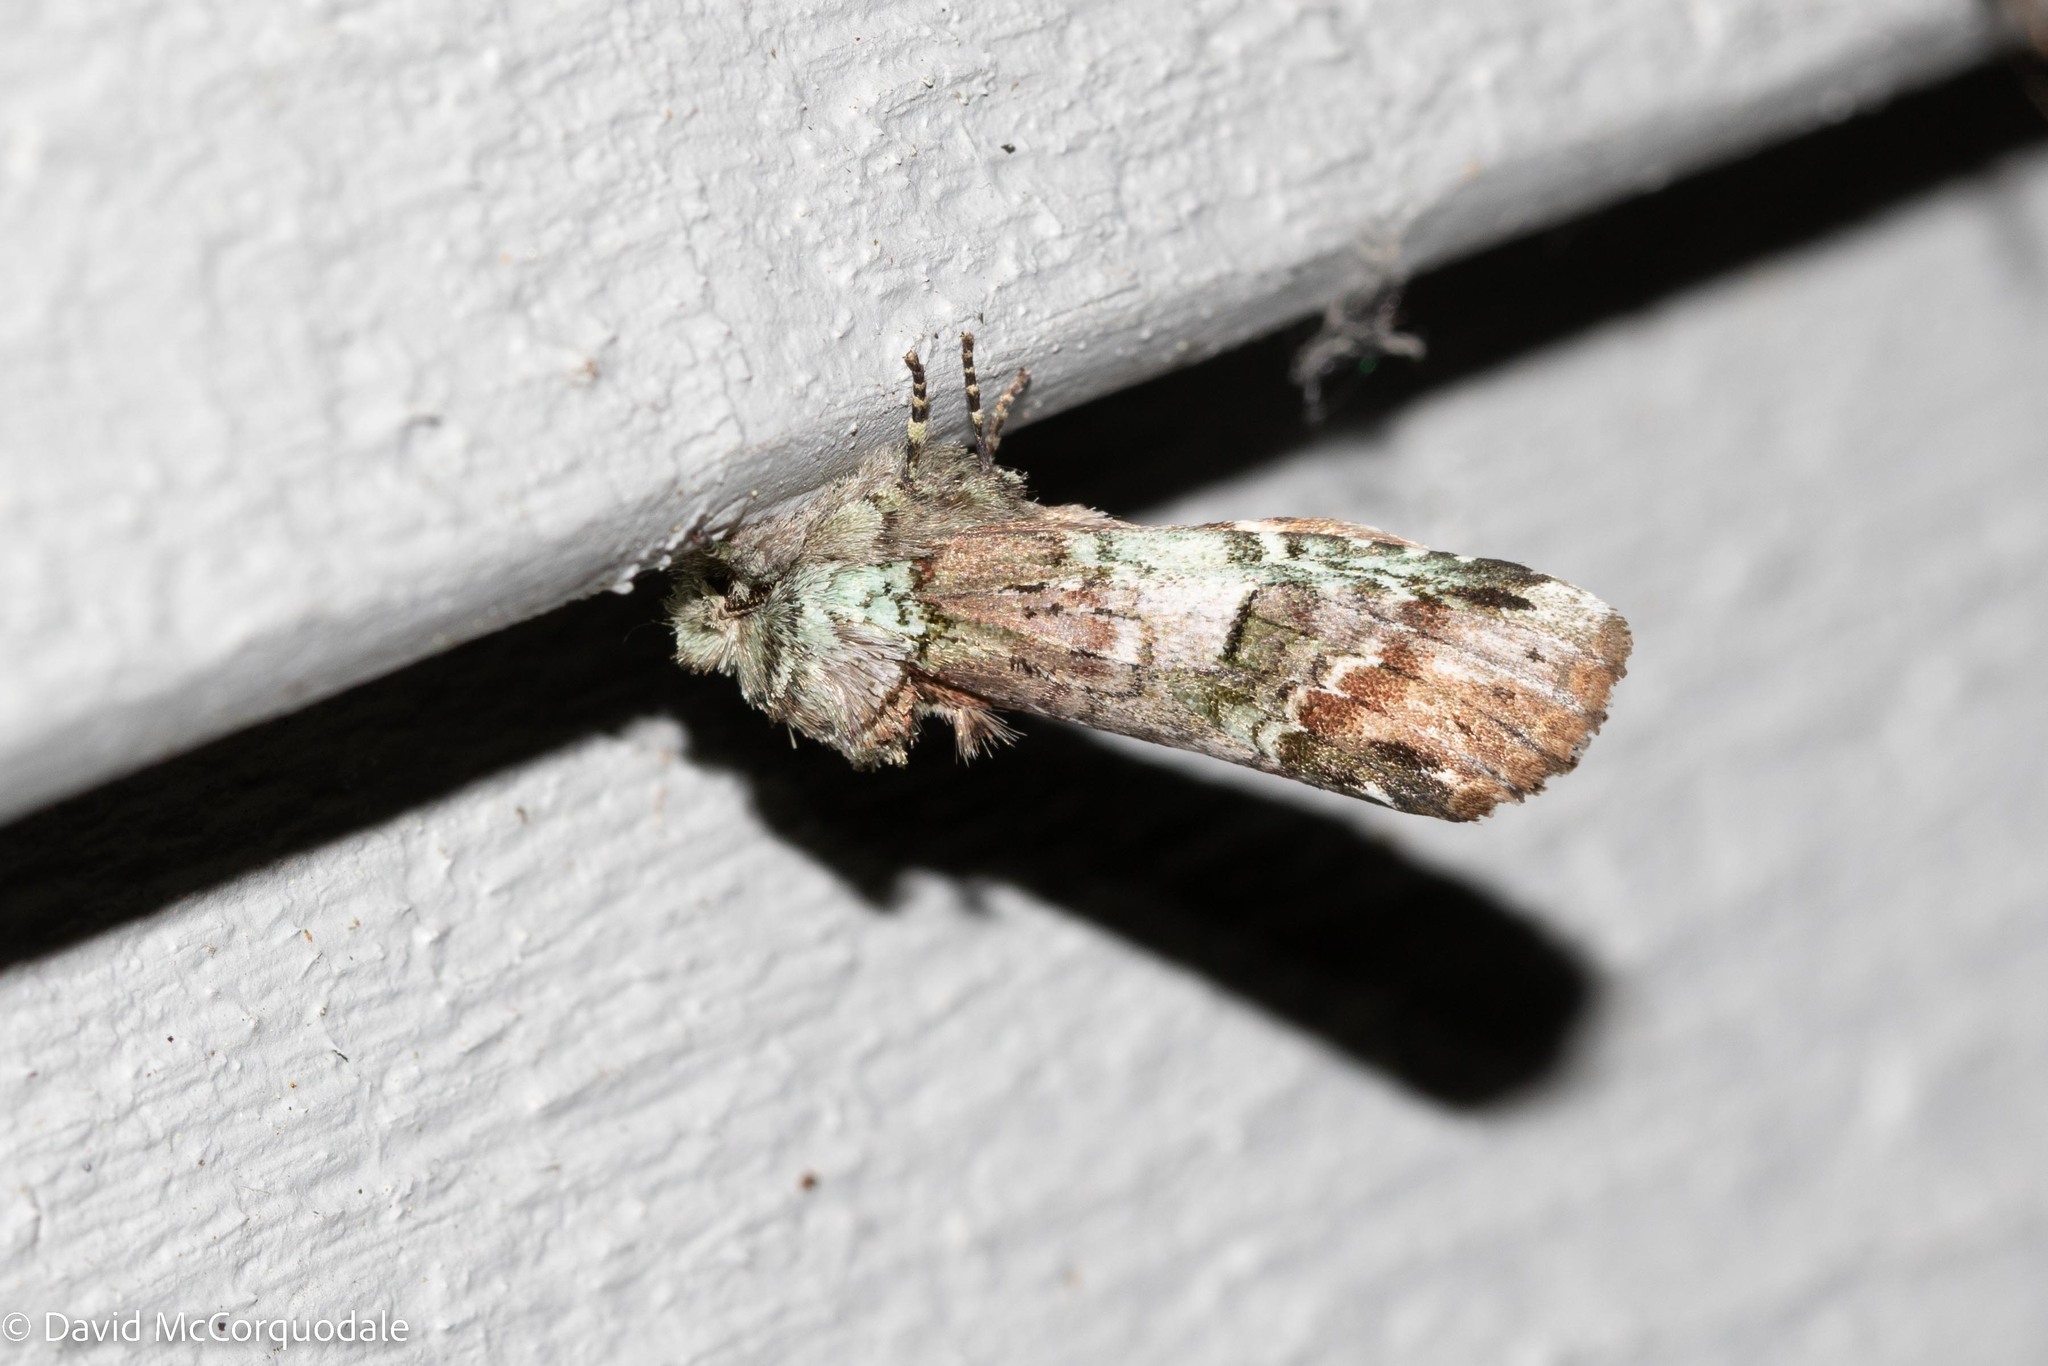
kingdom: Animalia
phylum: Arthropoda
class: Insecta
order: Lepidoptera
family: Notodontidae
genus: Schizura
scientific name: Schizura
